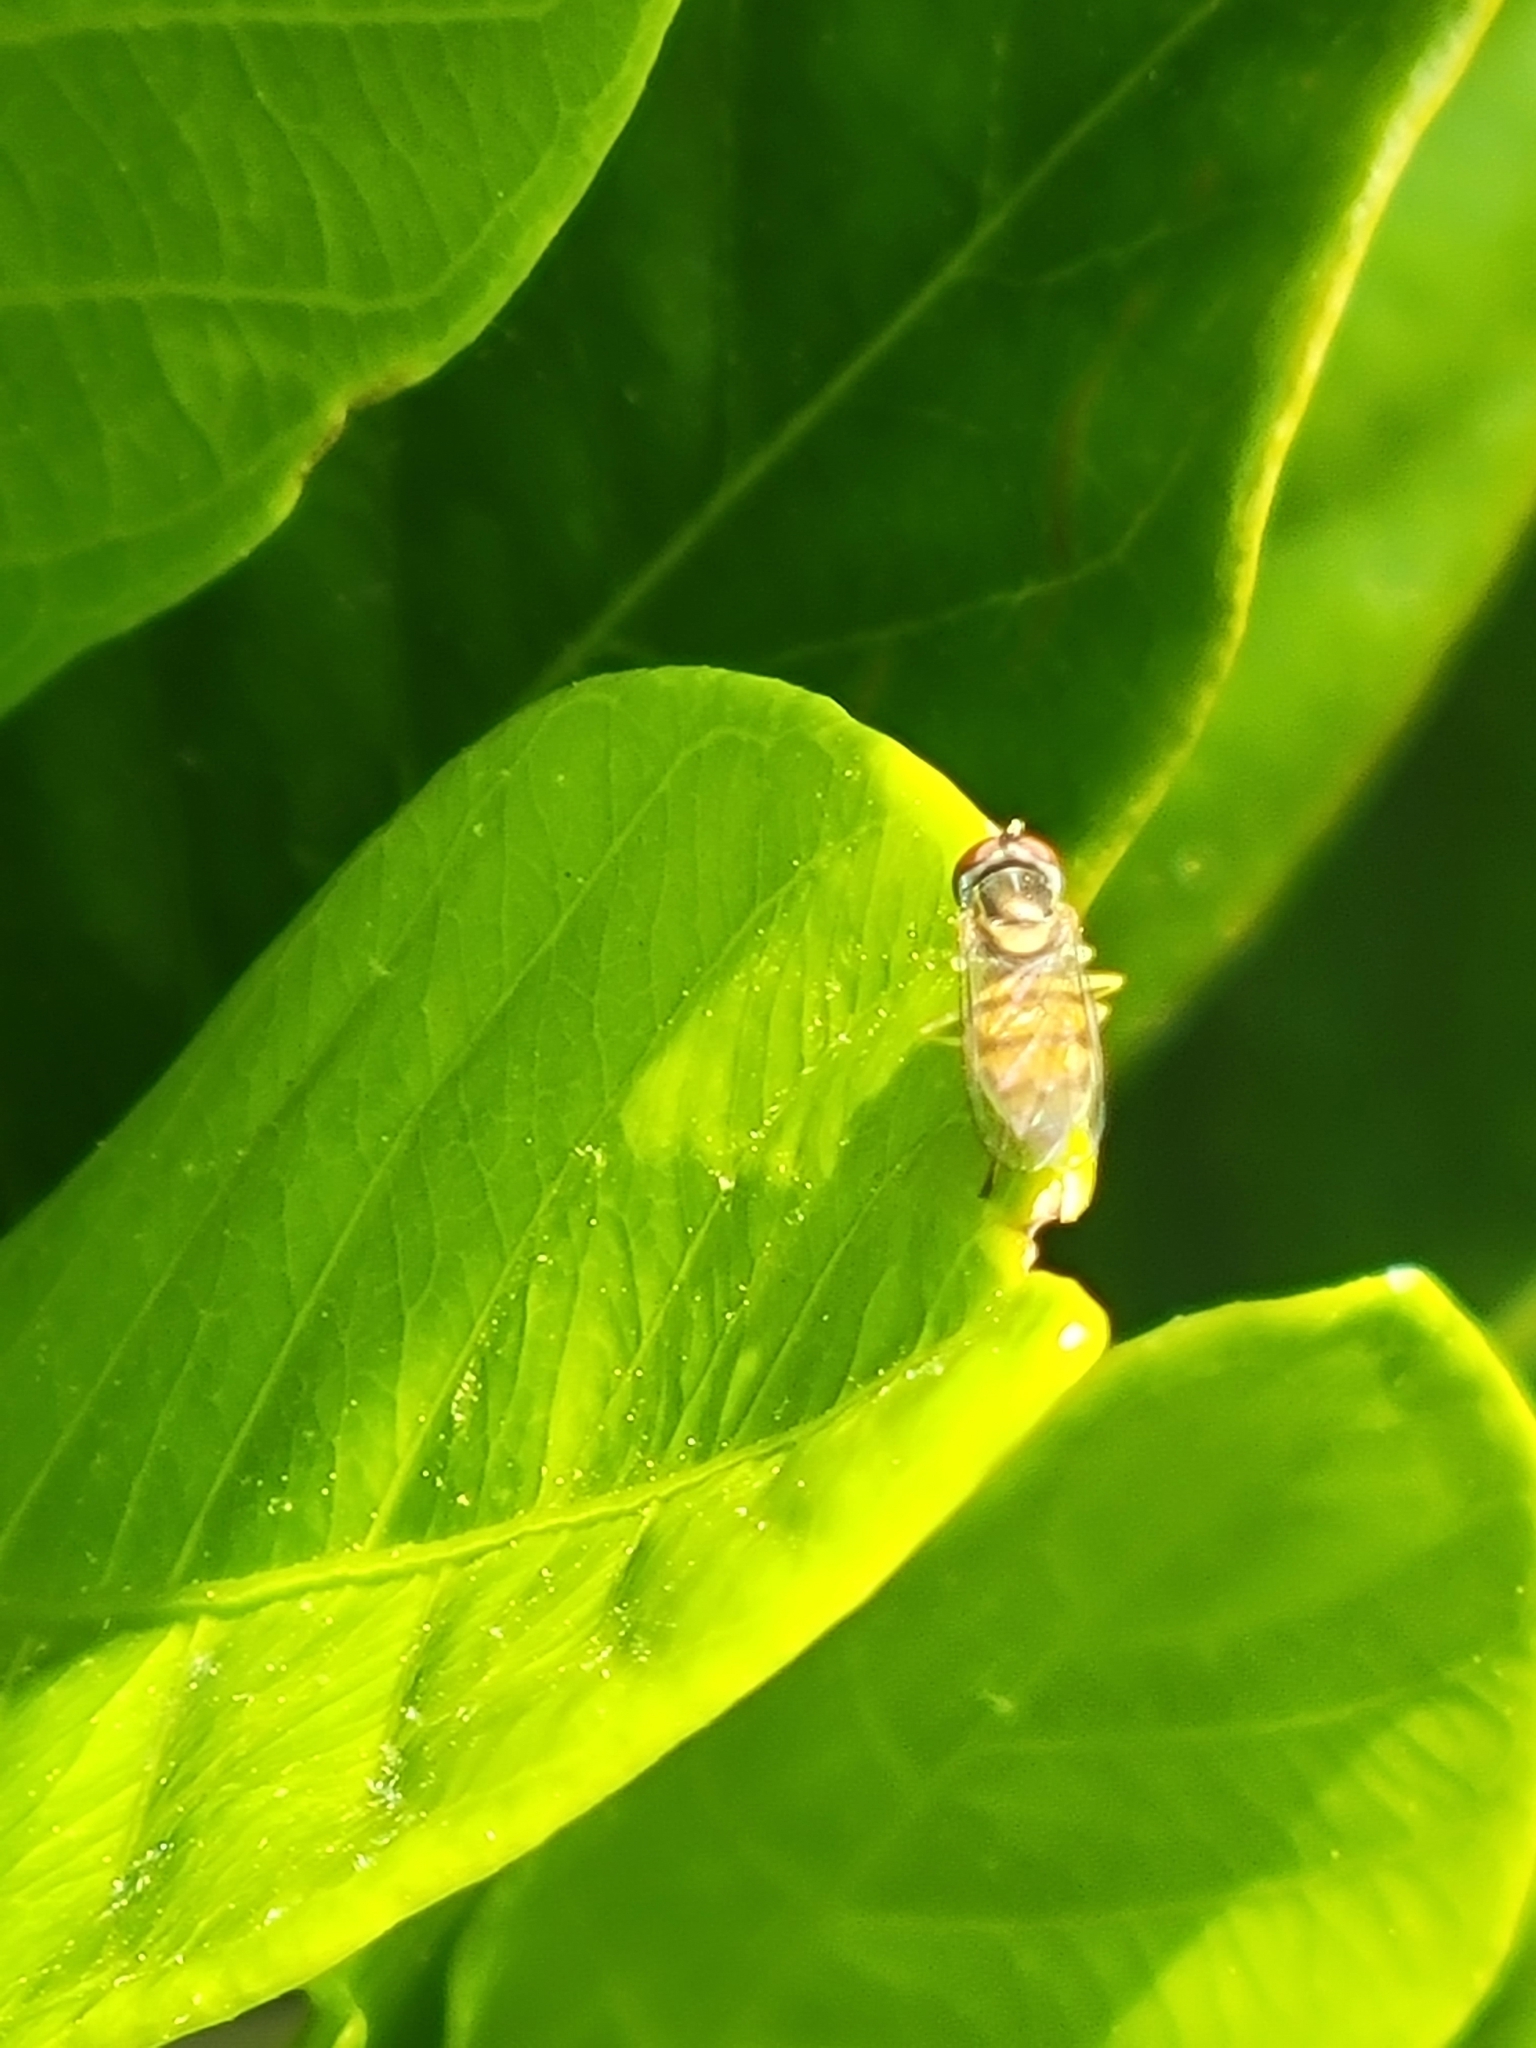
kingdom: Animalia
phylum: Arthropoda
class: Insecta
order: Diptera
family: Syrphidae
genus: Toxomerus
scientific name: Toxomerus marginatus
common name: Syrphid fly
